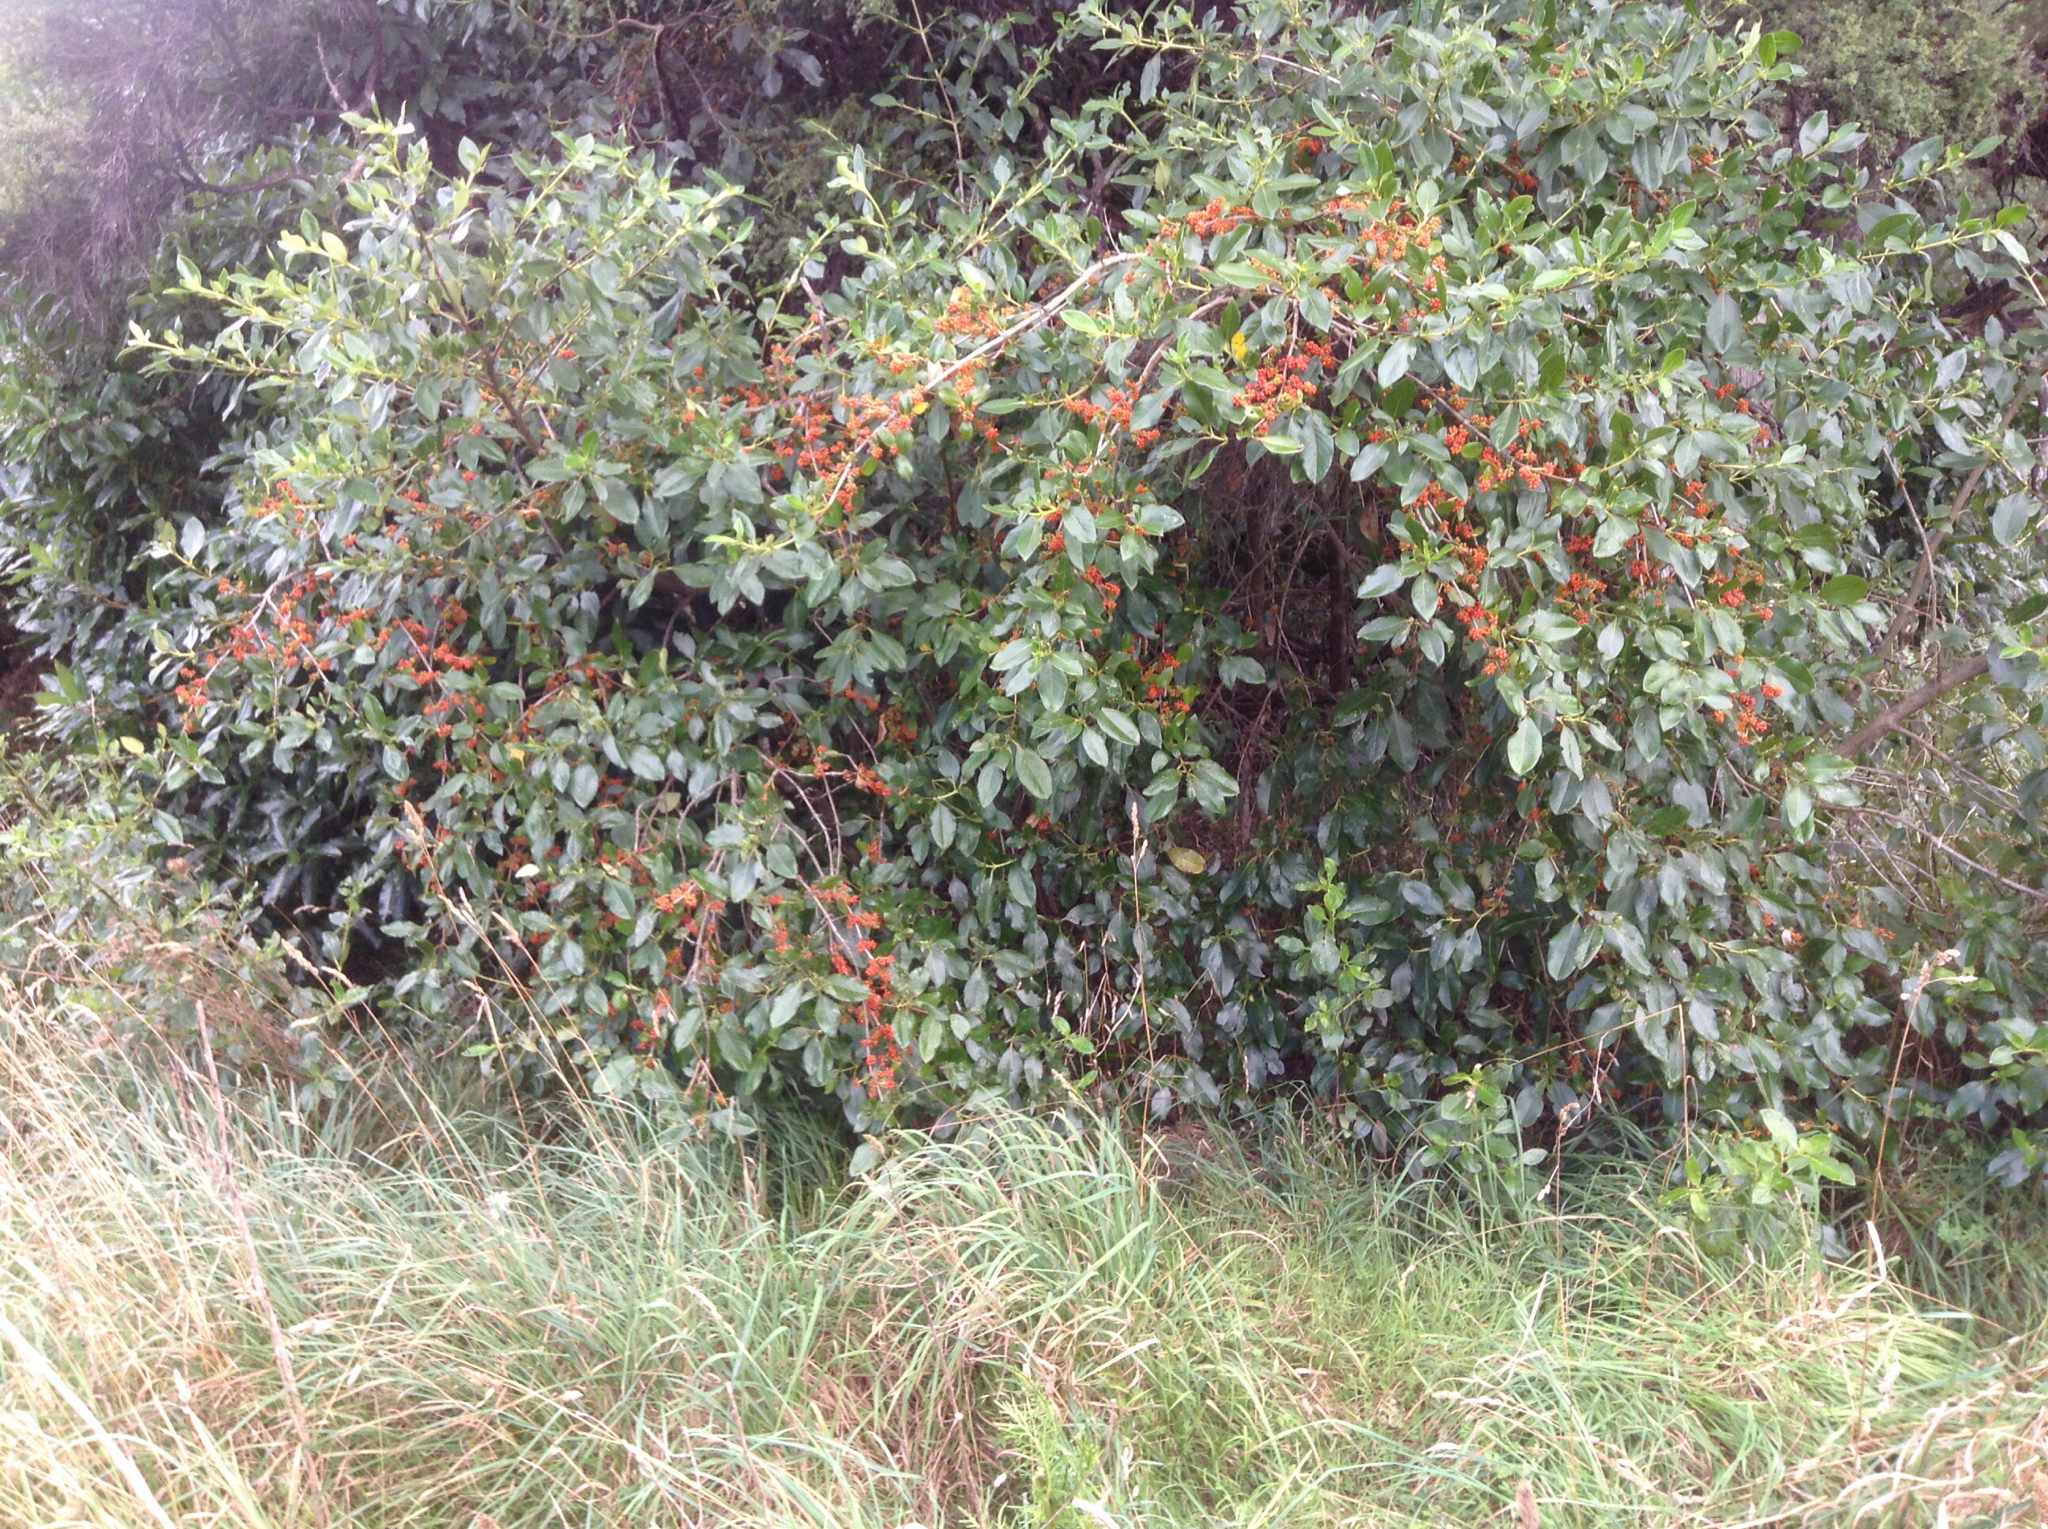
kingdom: Plantae
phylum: Tracheophyta
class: Magnoliopsida
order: Gentianales
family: Rubiaceae
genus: Coprosma
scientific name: Coprosma robusta
